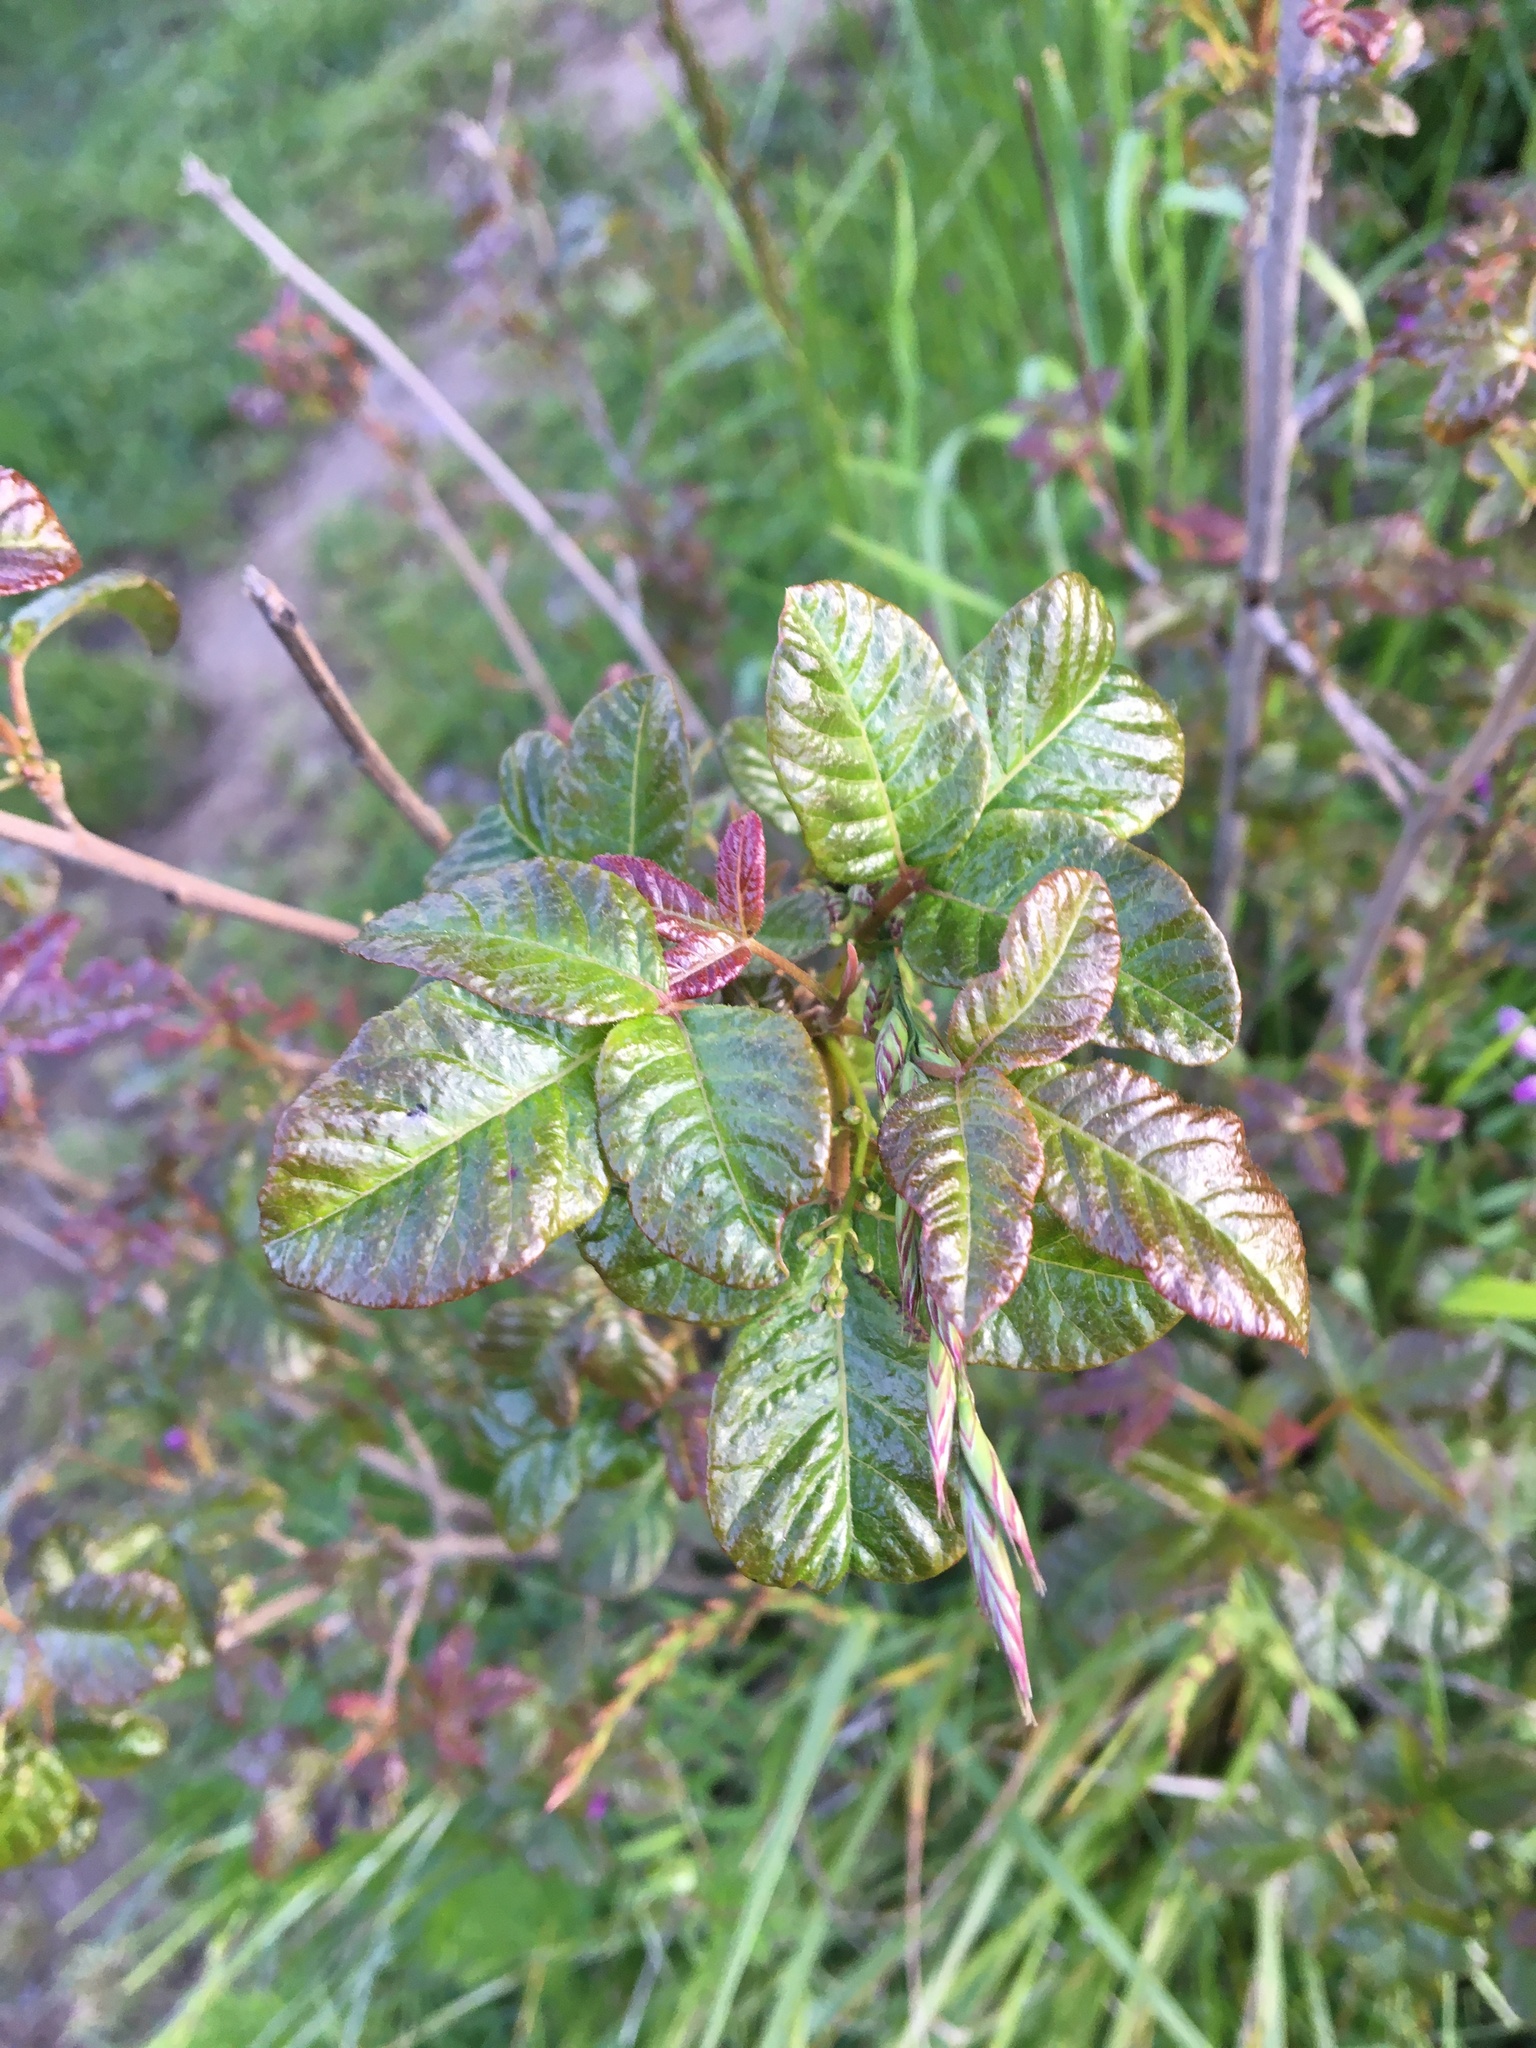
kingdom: Plantae
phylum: Tracheophyta
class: Magnoliopsida
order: Sapindales
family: Anacardiaceae
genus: Toxicodendron
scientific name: Toxicodendron diversilobum
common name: Pacific poison-oak
